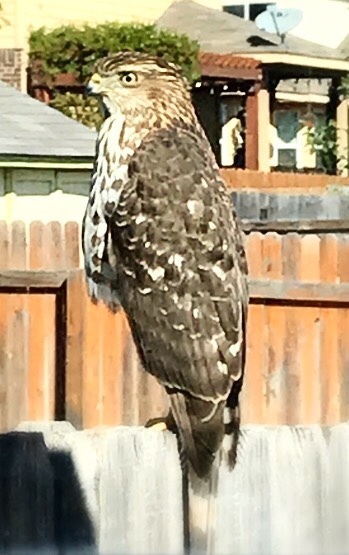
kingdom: Animalia
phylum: Chordata
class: Aves
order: Accipitriformes
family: Accipitridae
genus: Accipiter
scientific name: Accipiter cooperii
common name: Cooper's hawk
